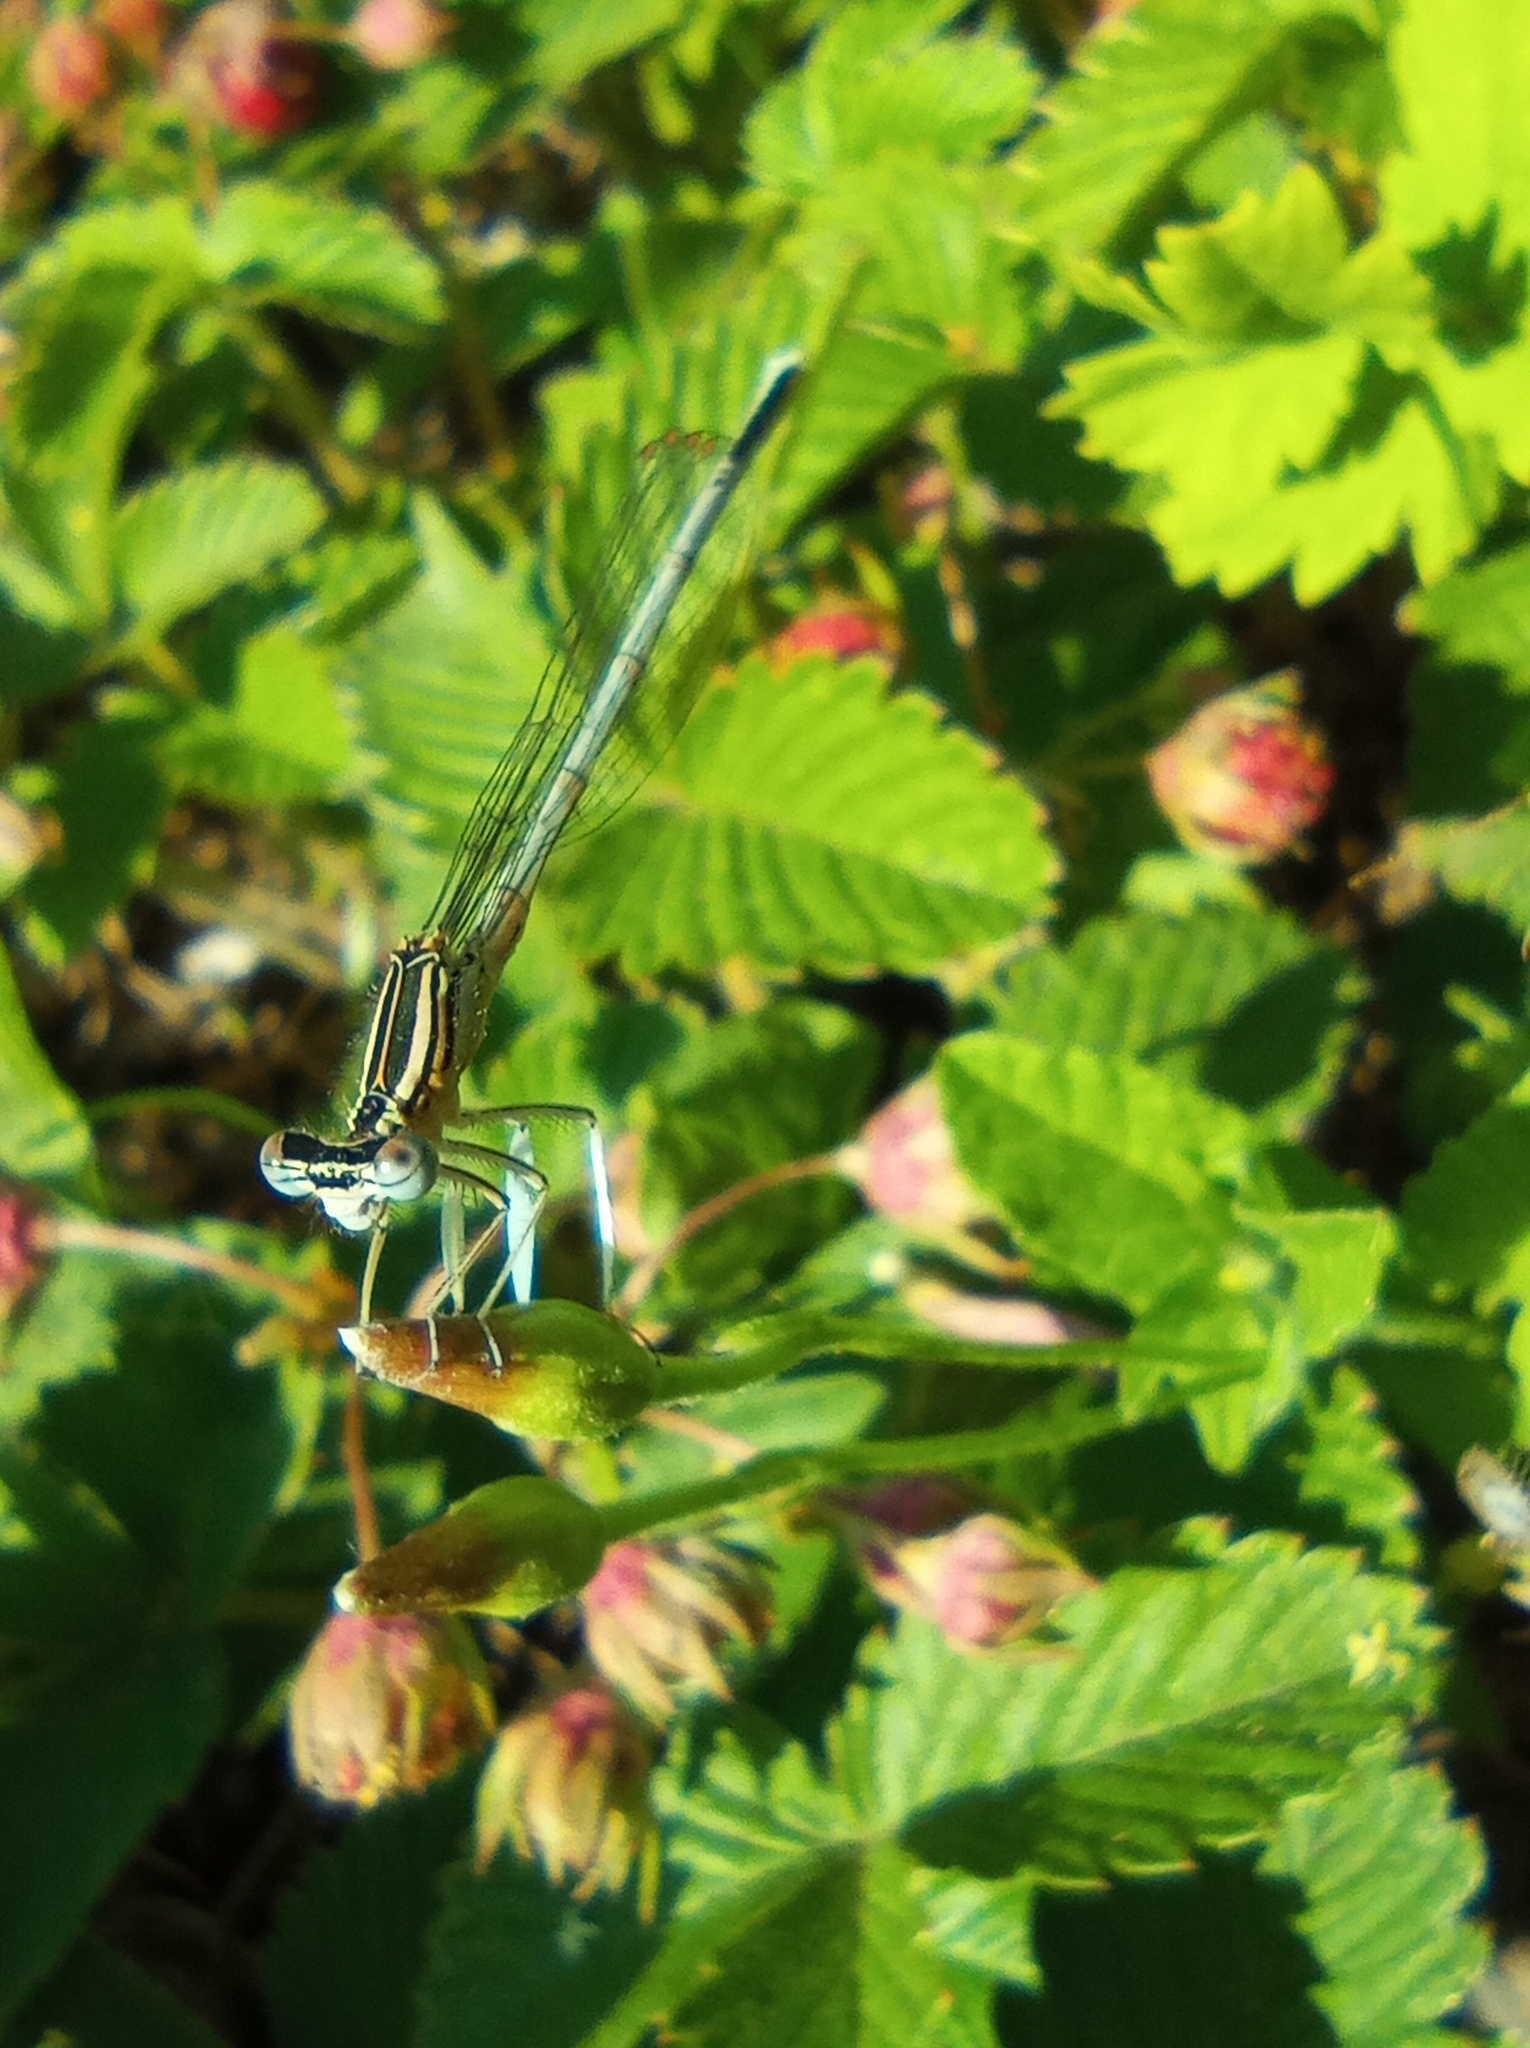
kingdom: Animalia
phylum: Arthropoda
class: Insecta
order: Odonata
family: Platycnemididae
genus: Platycnemis
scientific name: Platycnemis pennipes
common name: White-legged damselfly
